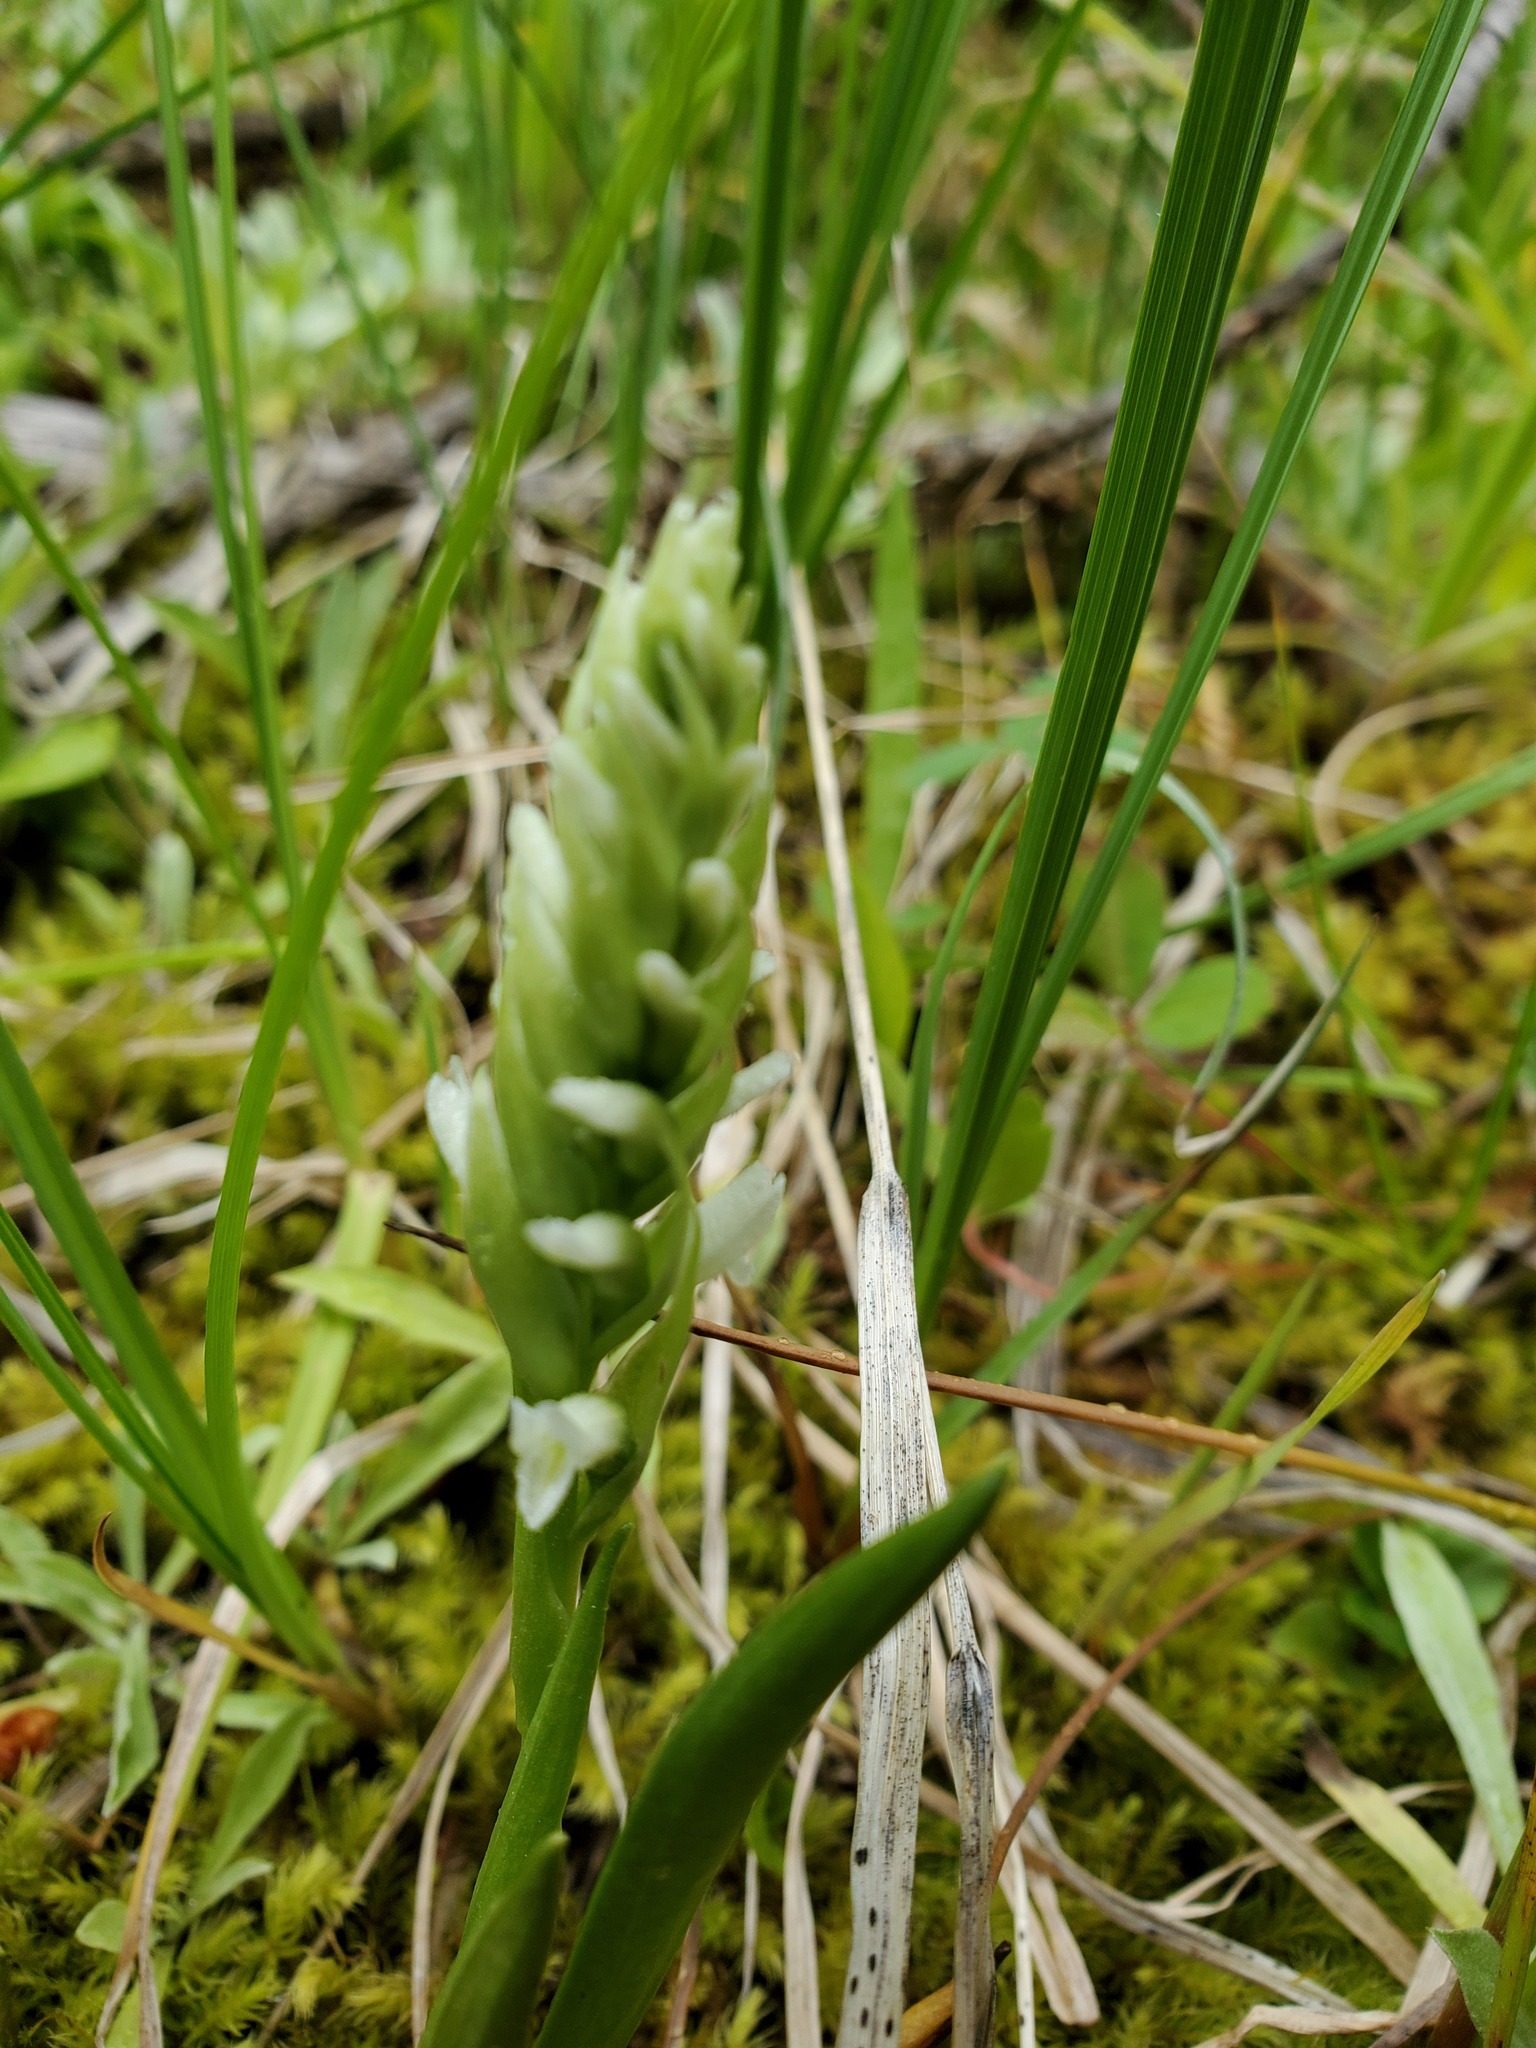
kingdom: Plantae
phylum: Tracheophyta
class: Liliopsida
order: Asparagales
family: Orchidaceae
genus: Spiranthes
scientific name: Spiranthes romanzoffiana
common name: Irish lady's-tresses
